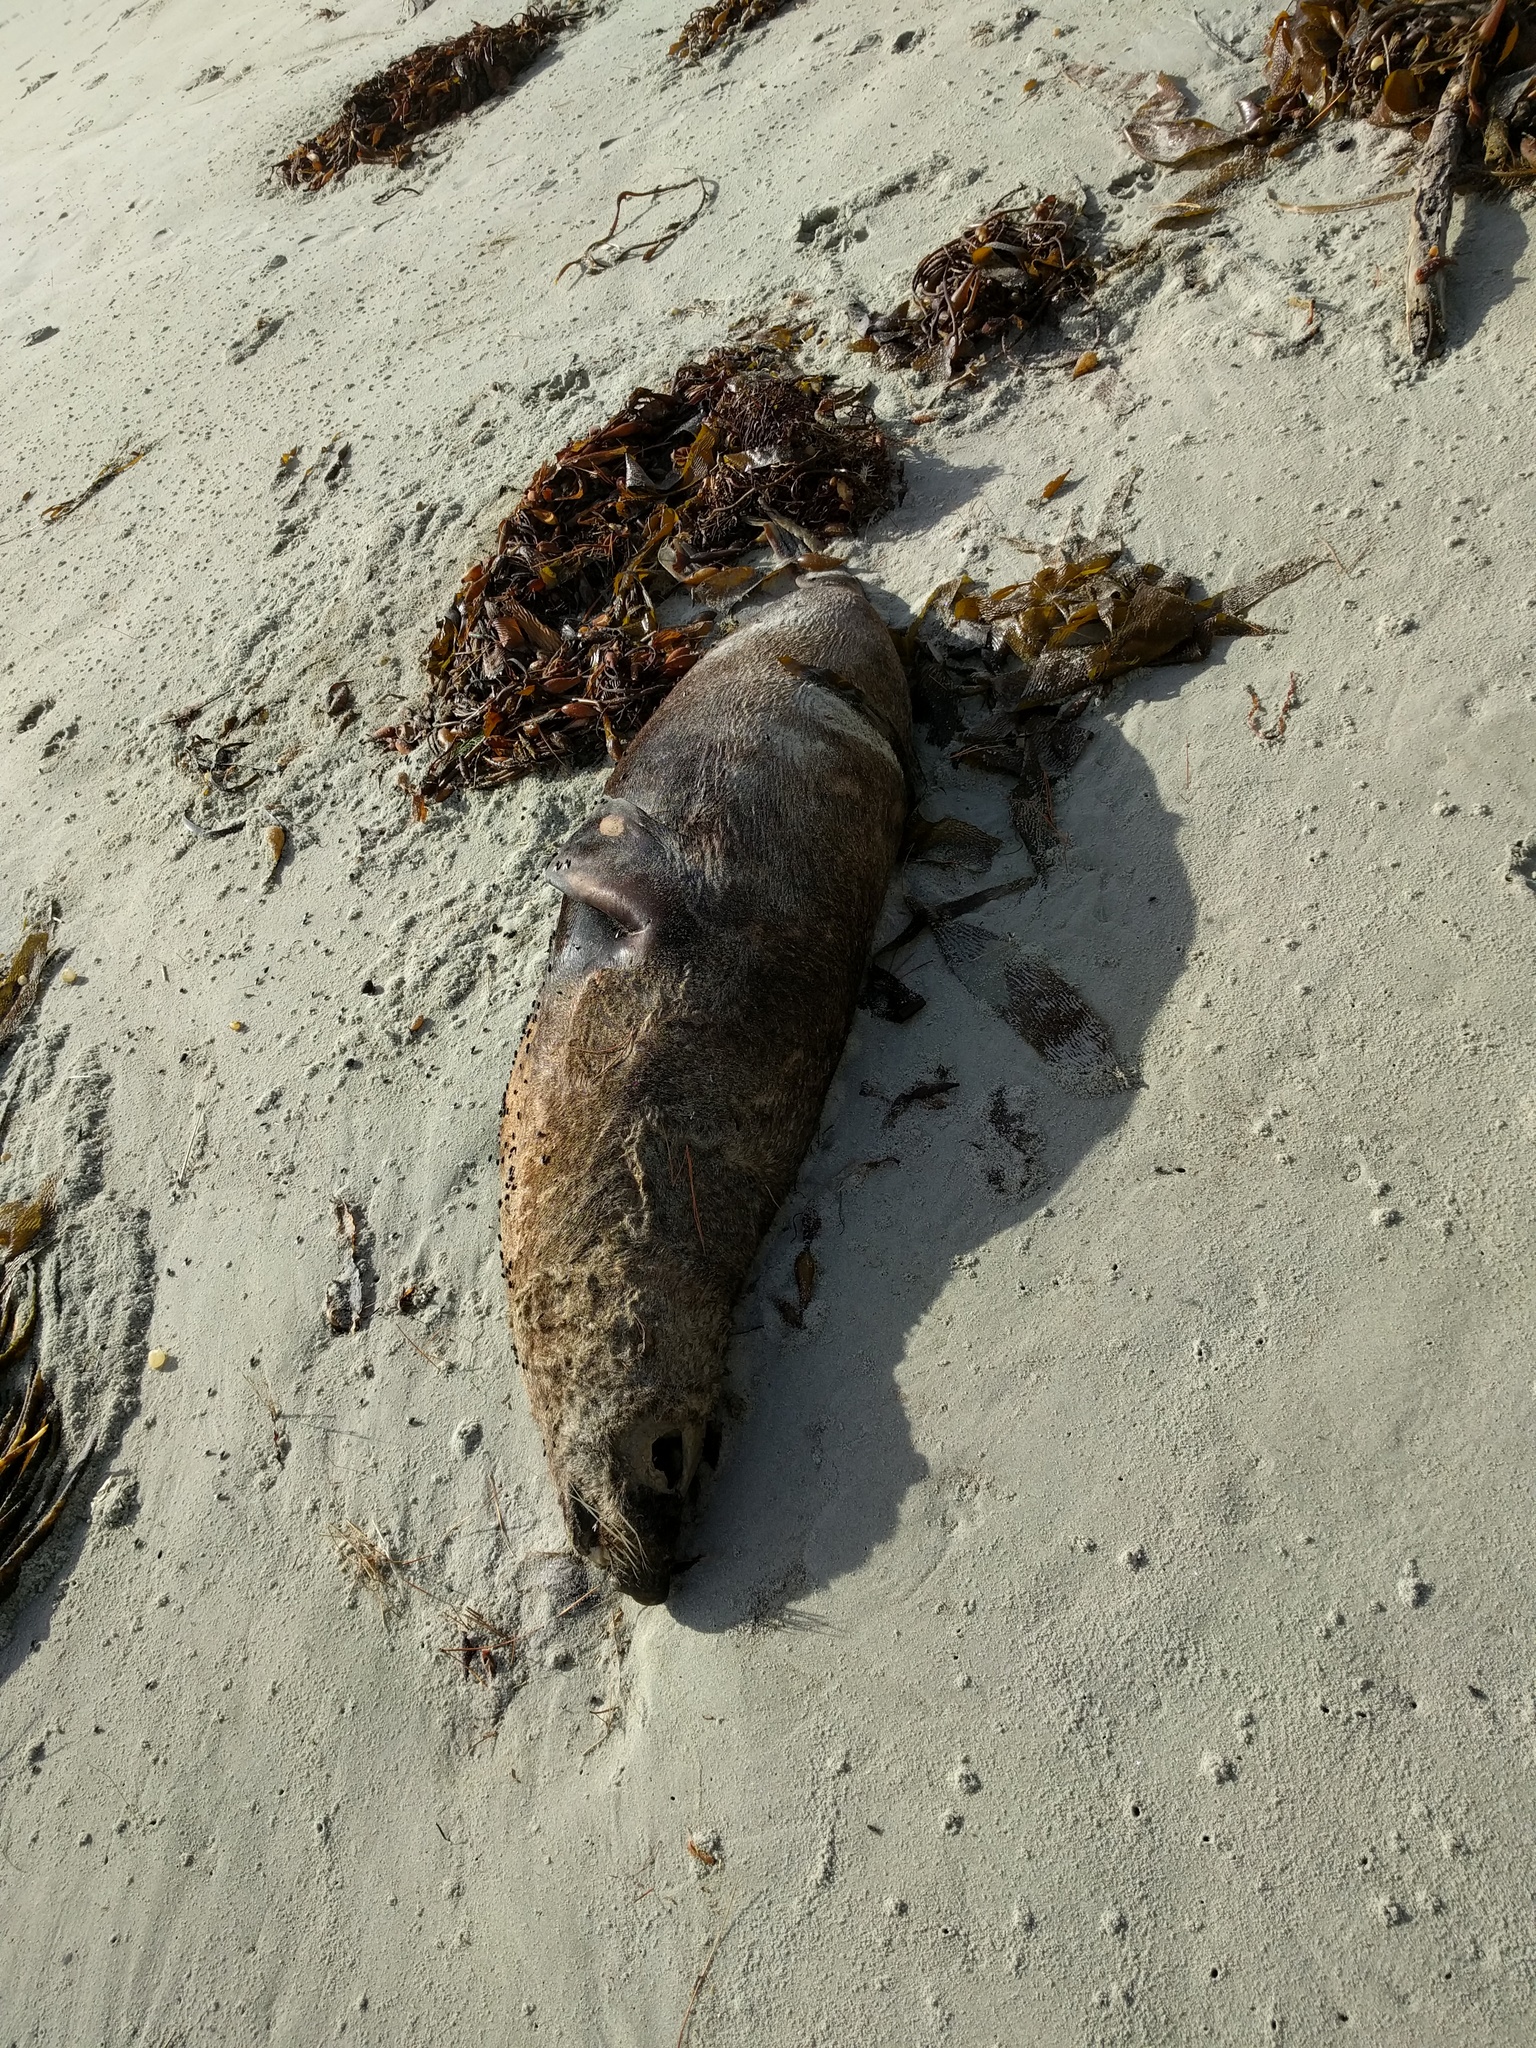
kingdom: Animalia
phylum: Chordata
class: Mammalia
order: Carnivora
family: Otariidae
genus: Arctocephalus
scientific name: Arctocephalus forsteri
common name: New zealand fur seal
